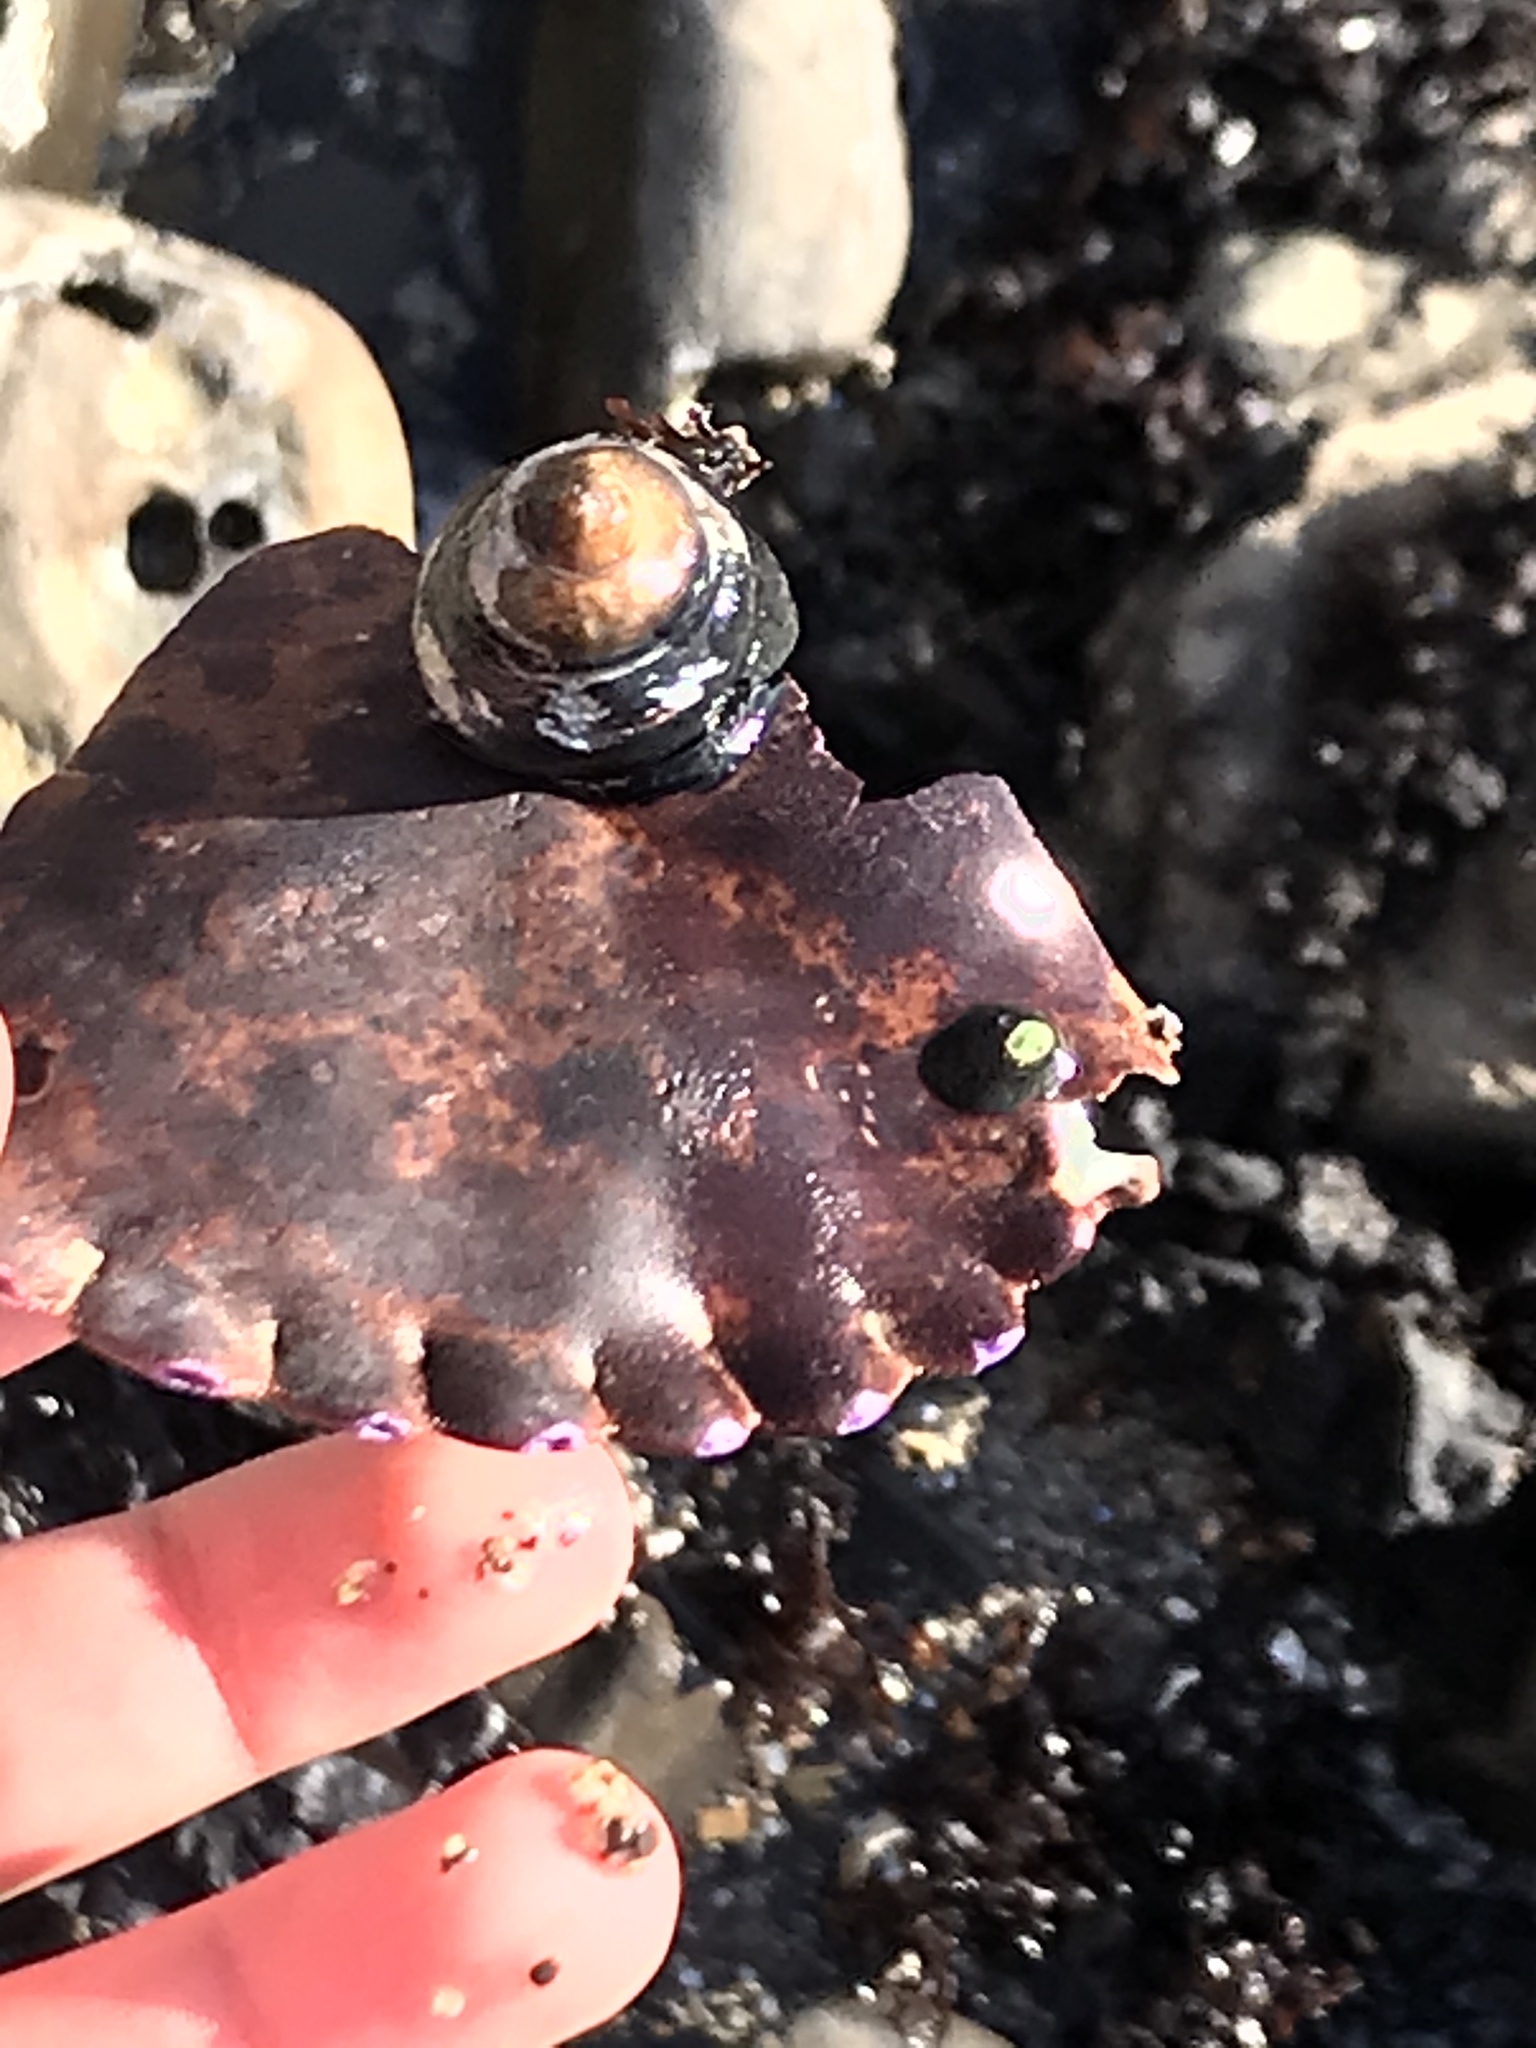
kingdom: Animalia
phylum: Mollusca
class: Gastropoda
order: Trochida
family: Tegulidae
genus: Tegula
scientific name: Tegula funebralis
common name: Black tegula
